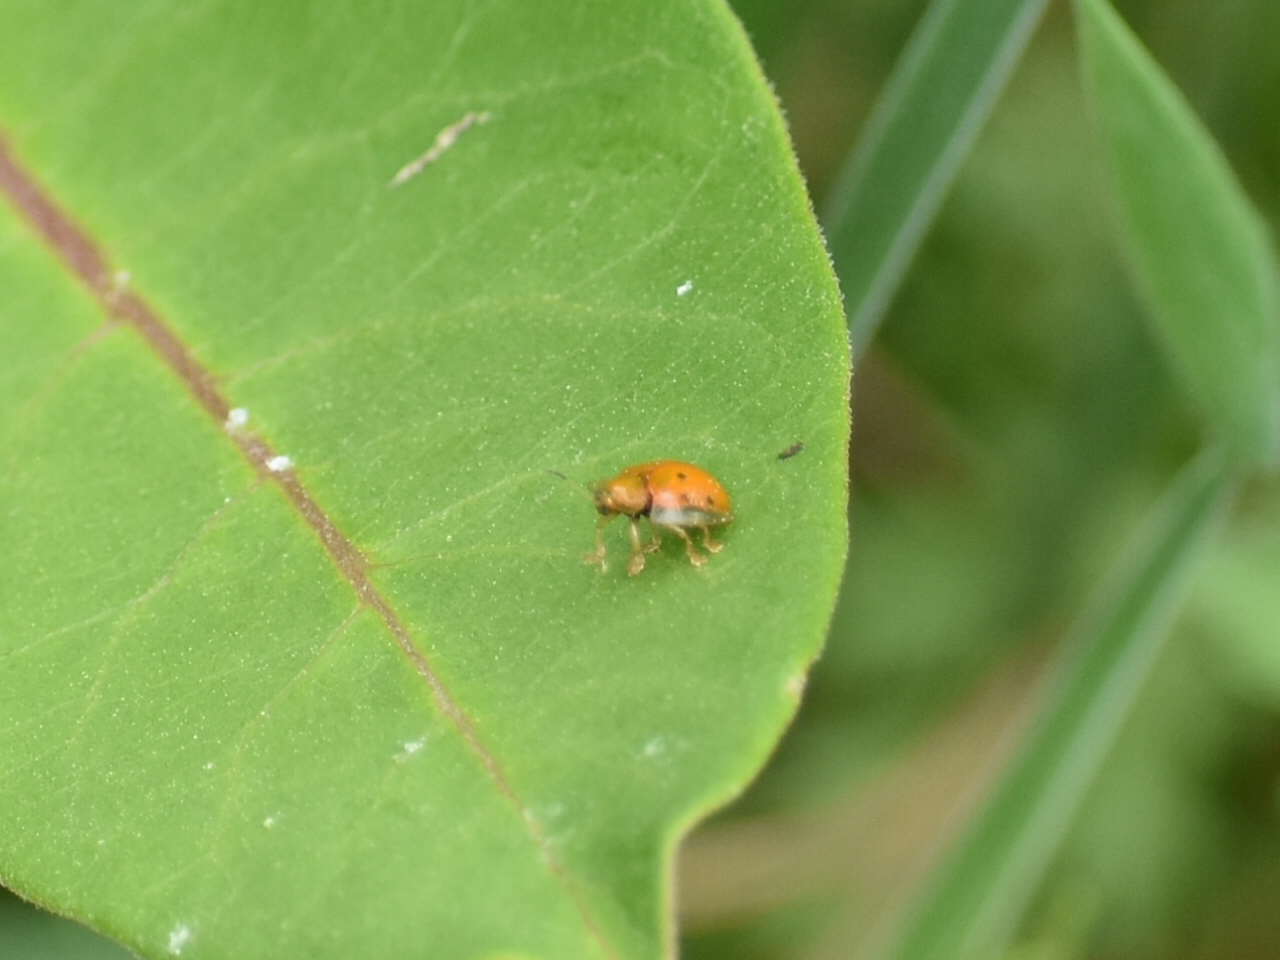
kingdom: Animalia
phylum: Arthropoda
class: Insecta
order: Coleoptera
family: Chrysomelidae
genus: Charidotella
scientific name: Charidotella sexpunctata
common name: Golden tortoise beetle
